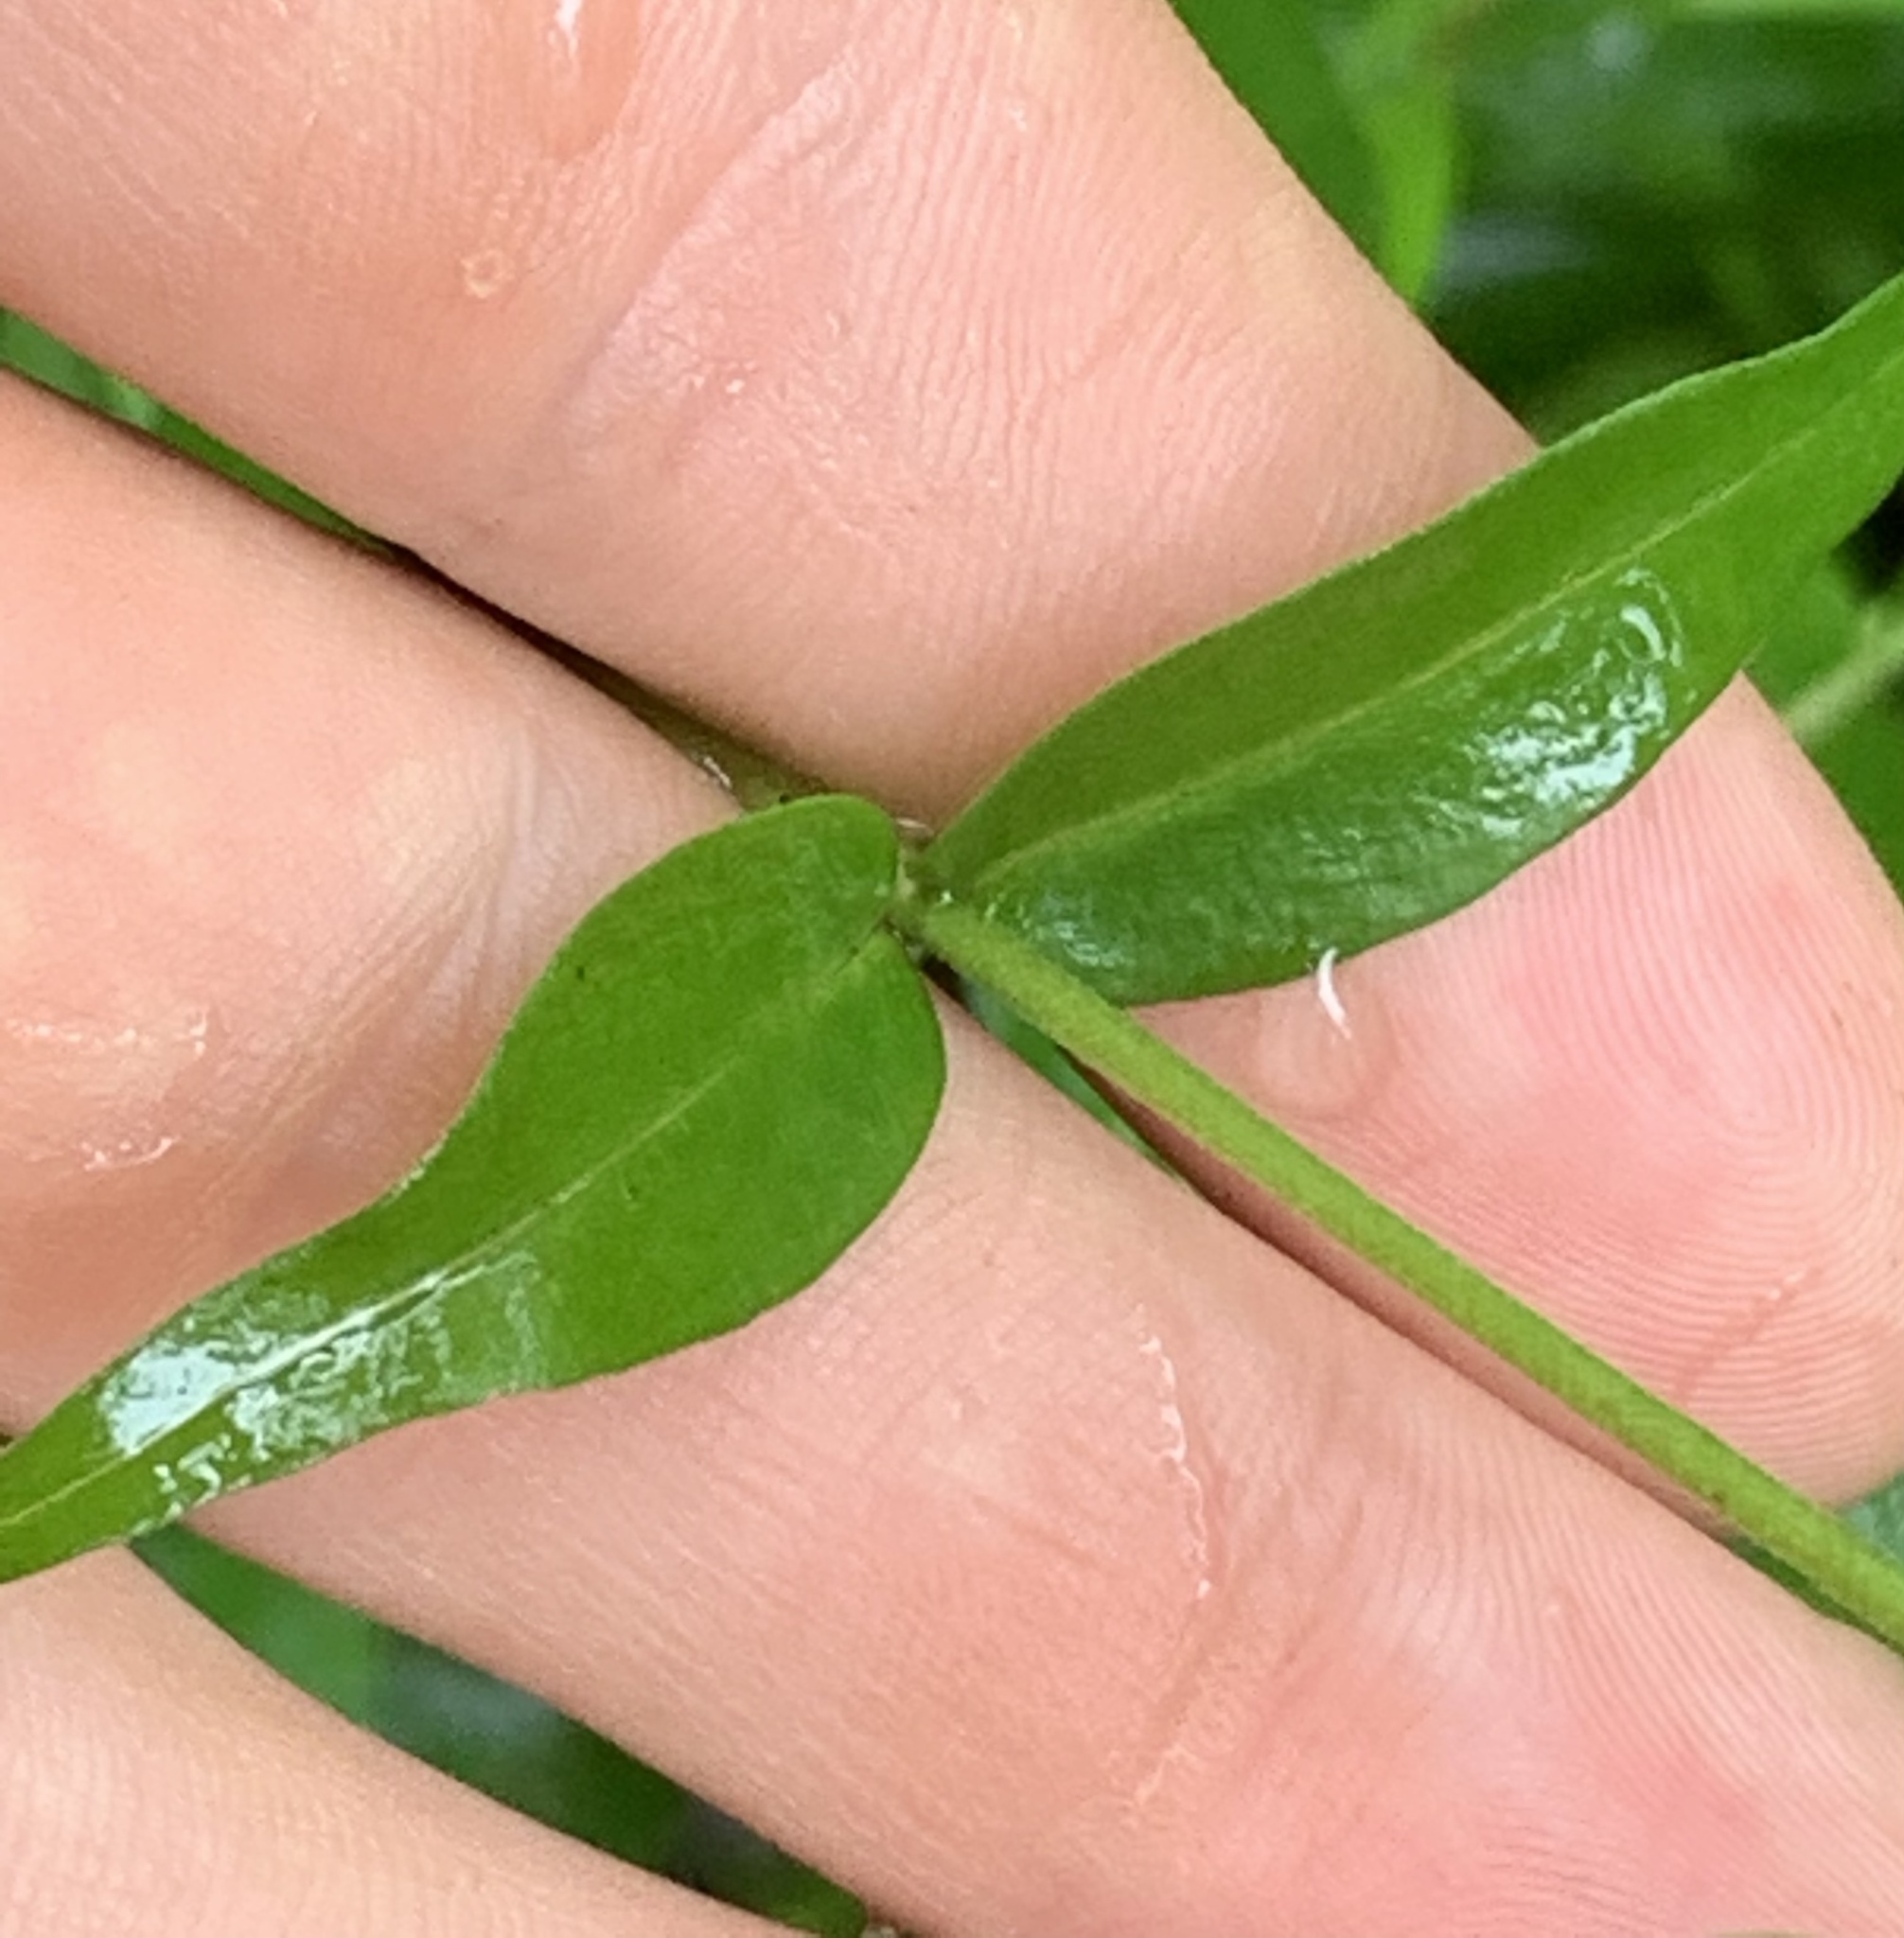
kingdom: Plantae
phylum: Tracheophyta
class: Magnoliopsida
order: Ericales
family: Polemoniaceae
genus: Phlox
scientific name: Phlox carolina
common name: Thick-leaf phlox
